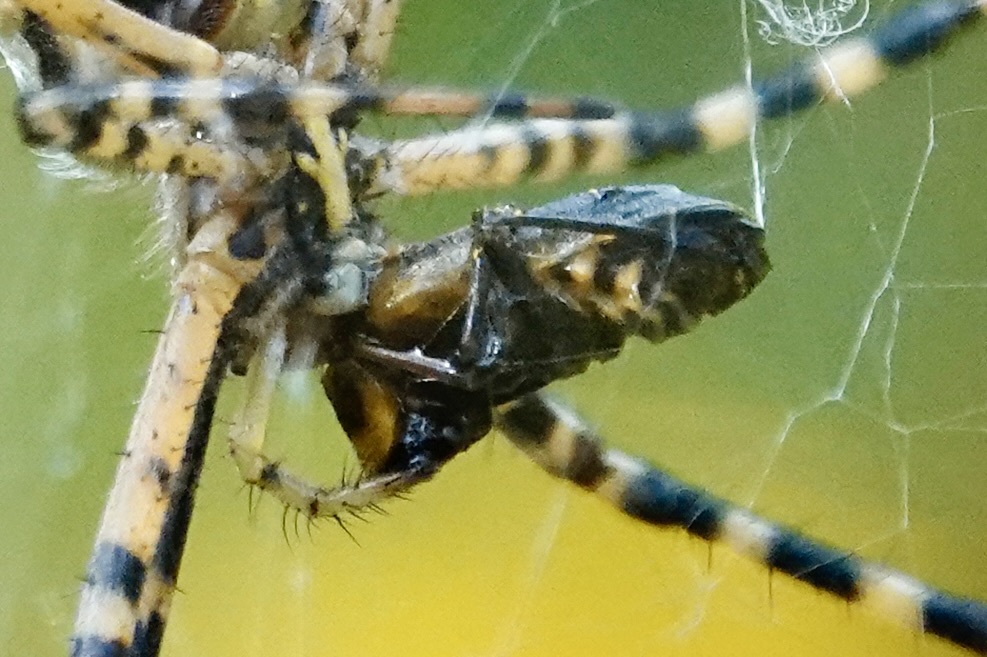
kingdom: Animalia
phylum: Arthropoda
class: Arachnida
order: Araneae
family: Araneidae
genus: Argiope
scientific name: Argiope trifasciata
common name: Banded garden spider
